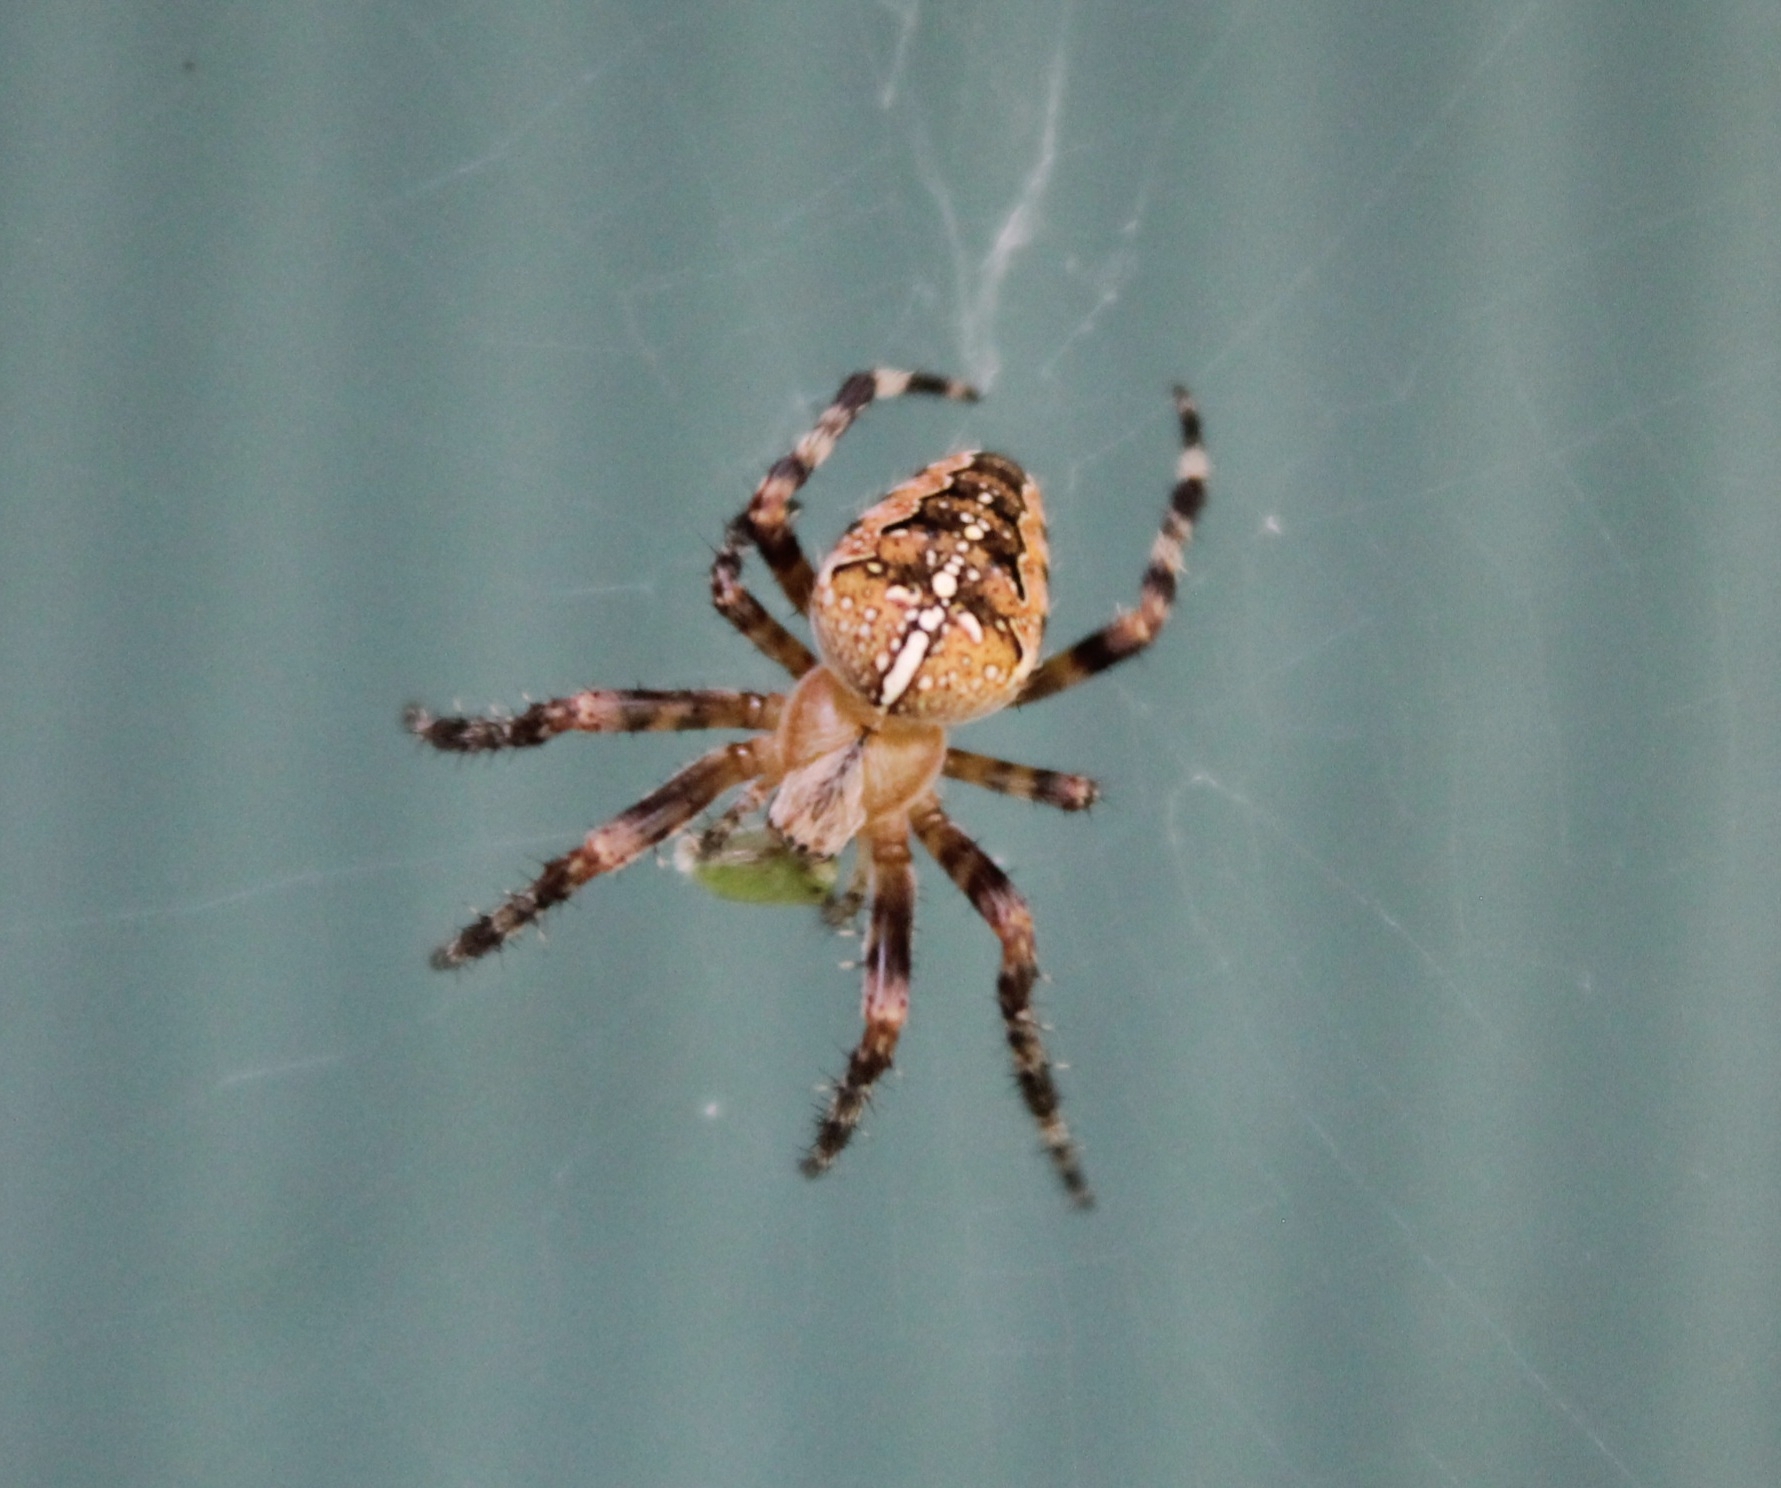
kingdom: Animalia
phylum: Arthropoda
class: Arachnida
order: Araneae
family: Araneidae
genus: Araneus
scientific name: Araneus diadematus
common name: Cross orbweaver
